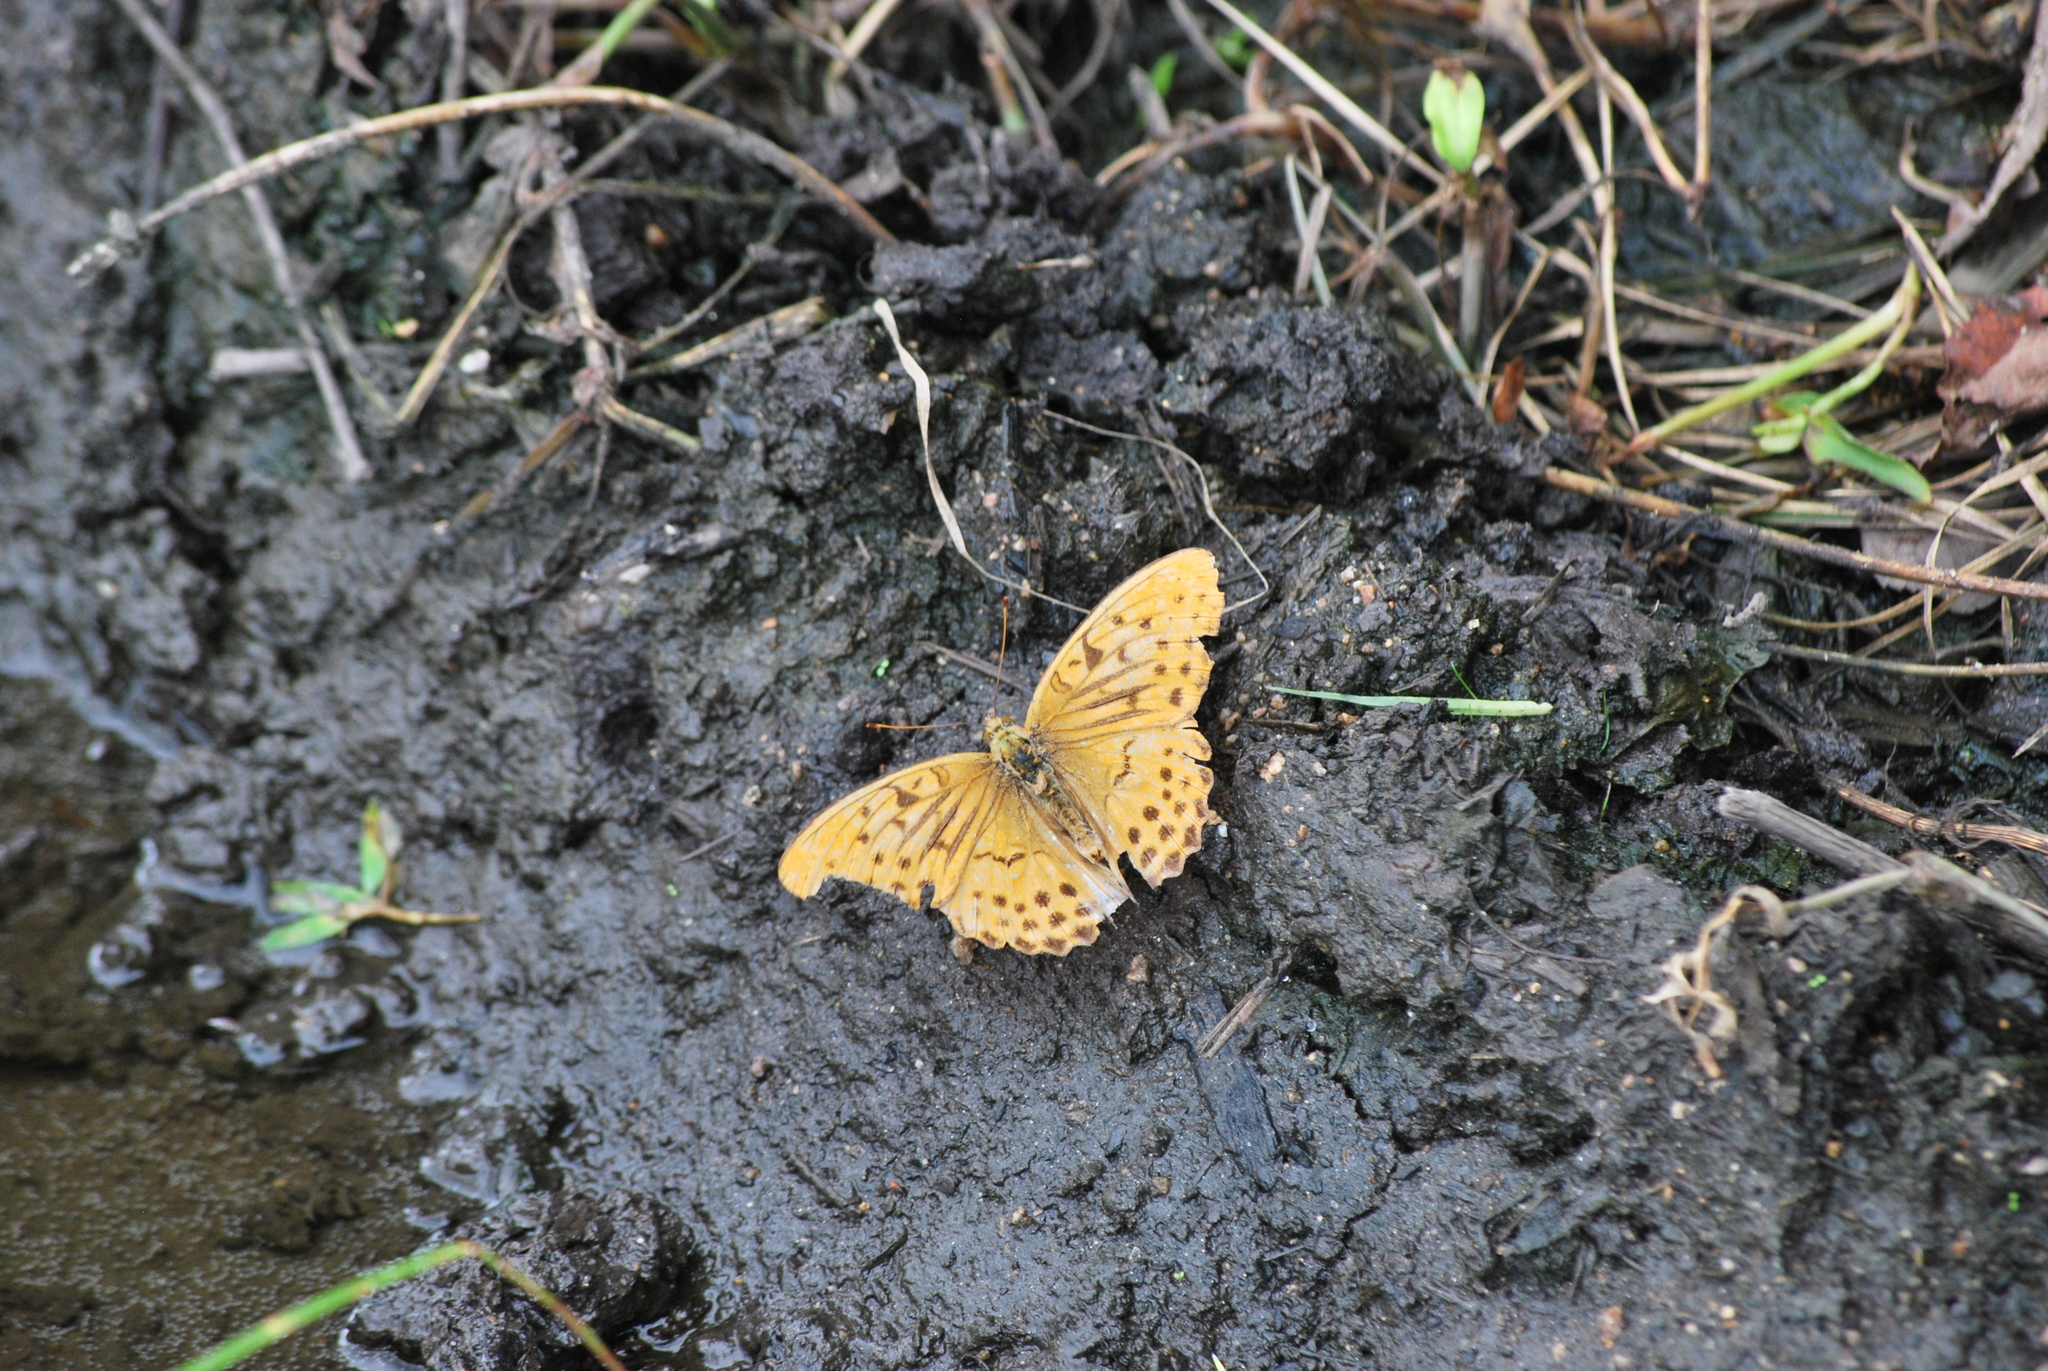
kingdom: Animalia
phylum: Arthropoda
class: Insecta
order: Lepidoptera
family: Nymphalidae
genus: Damora
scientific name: Damora sagana
